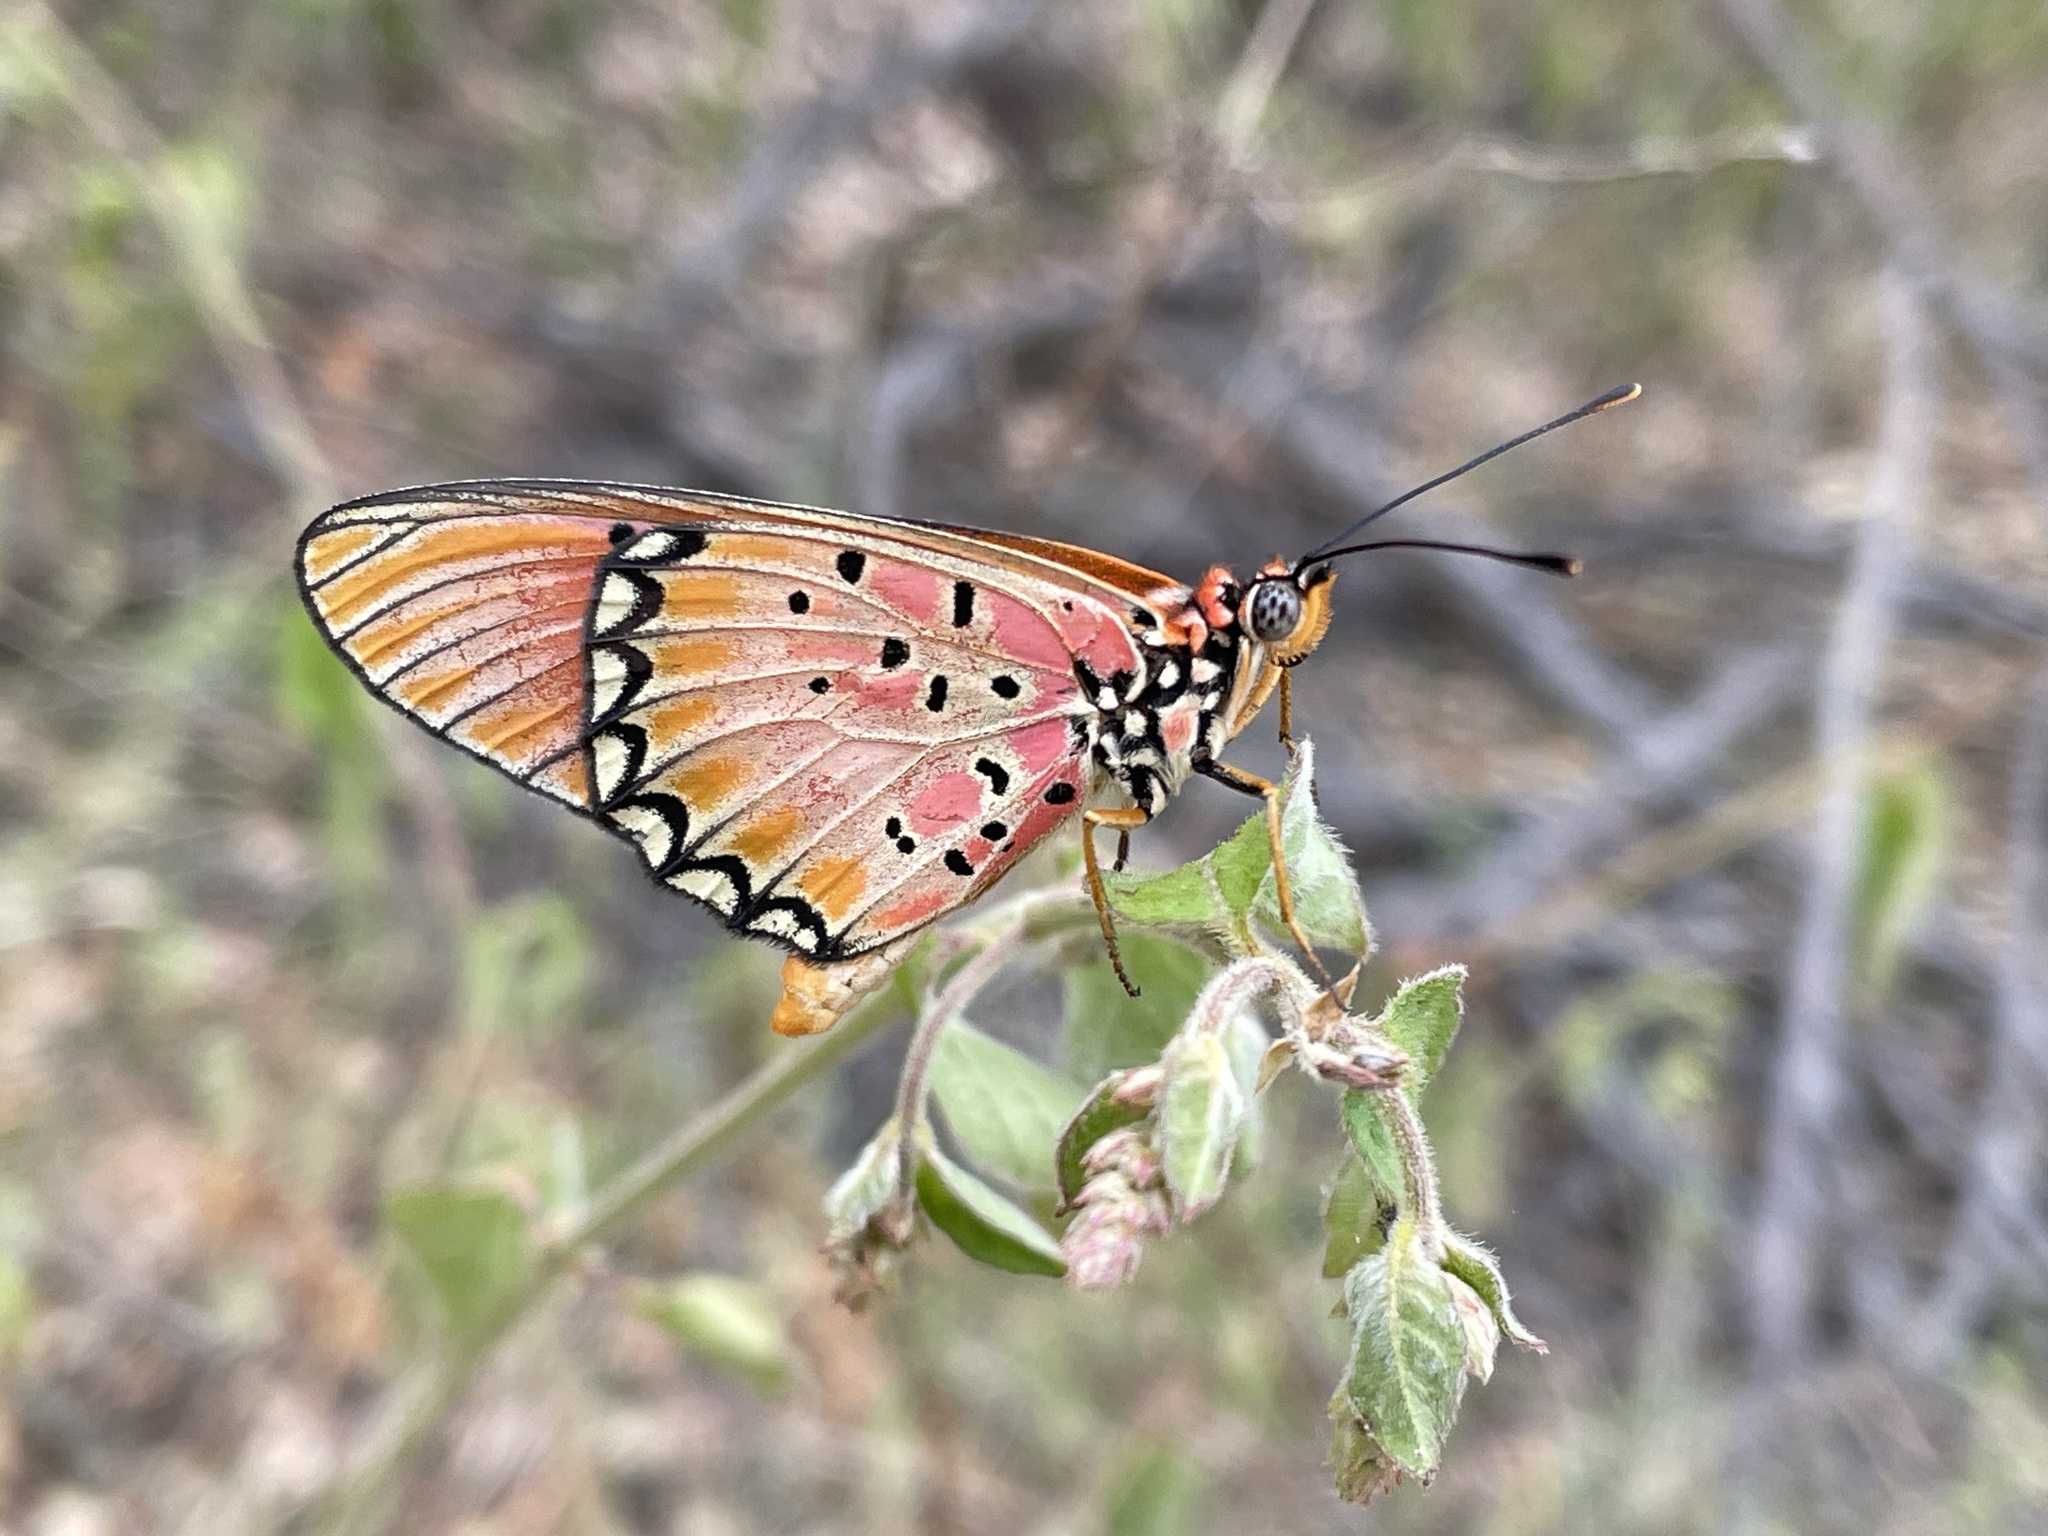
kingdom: Animalia
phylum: Arthropoda
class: Insecta
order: Lepidoptera
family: Nymphalidae
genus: Stephenia
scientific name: Stephenia
